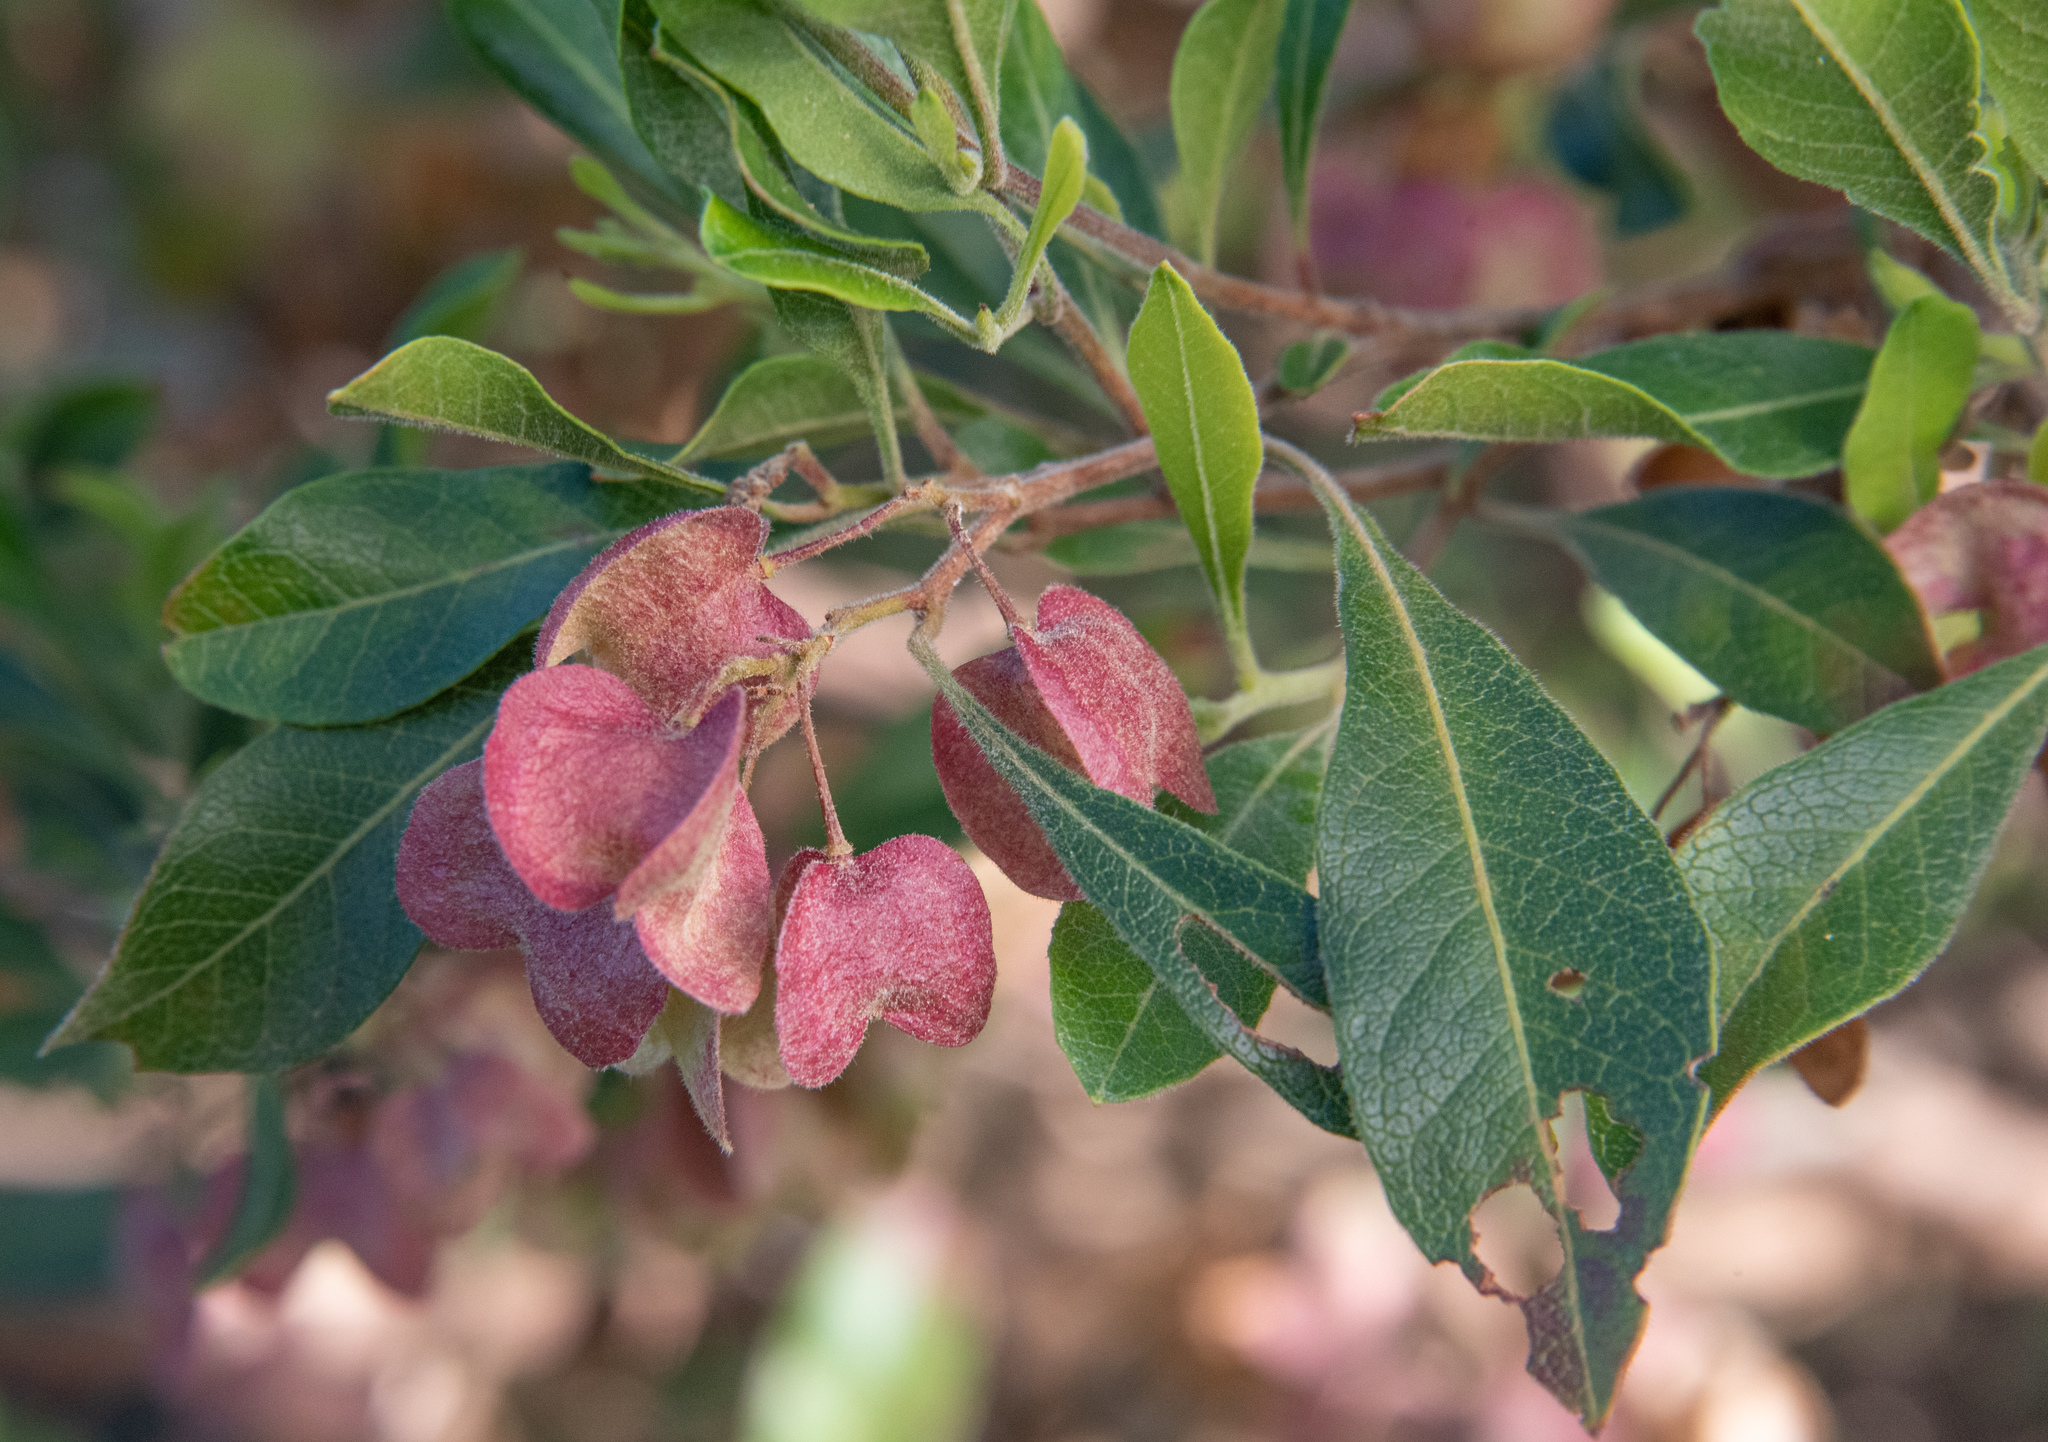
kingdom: Plantae
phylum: Tracheophyta
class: Magnoliopsida
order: Sapindales
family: Sapindaceae
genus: Dodonaea
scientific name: Dodonaea viscosa
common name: Hopbush
